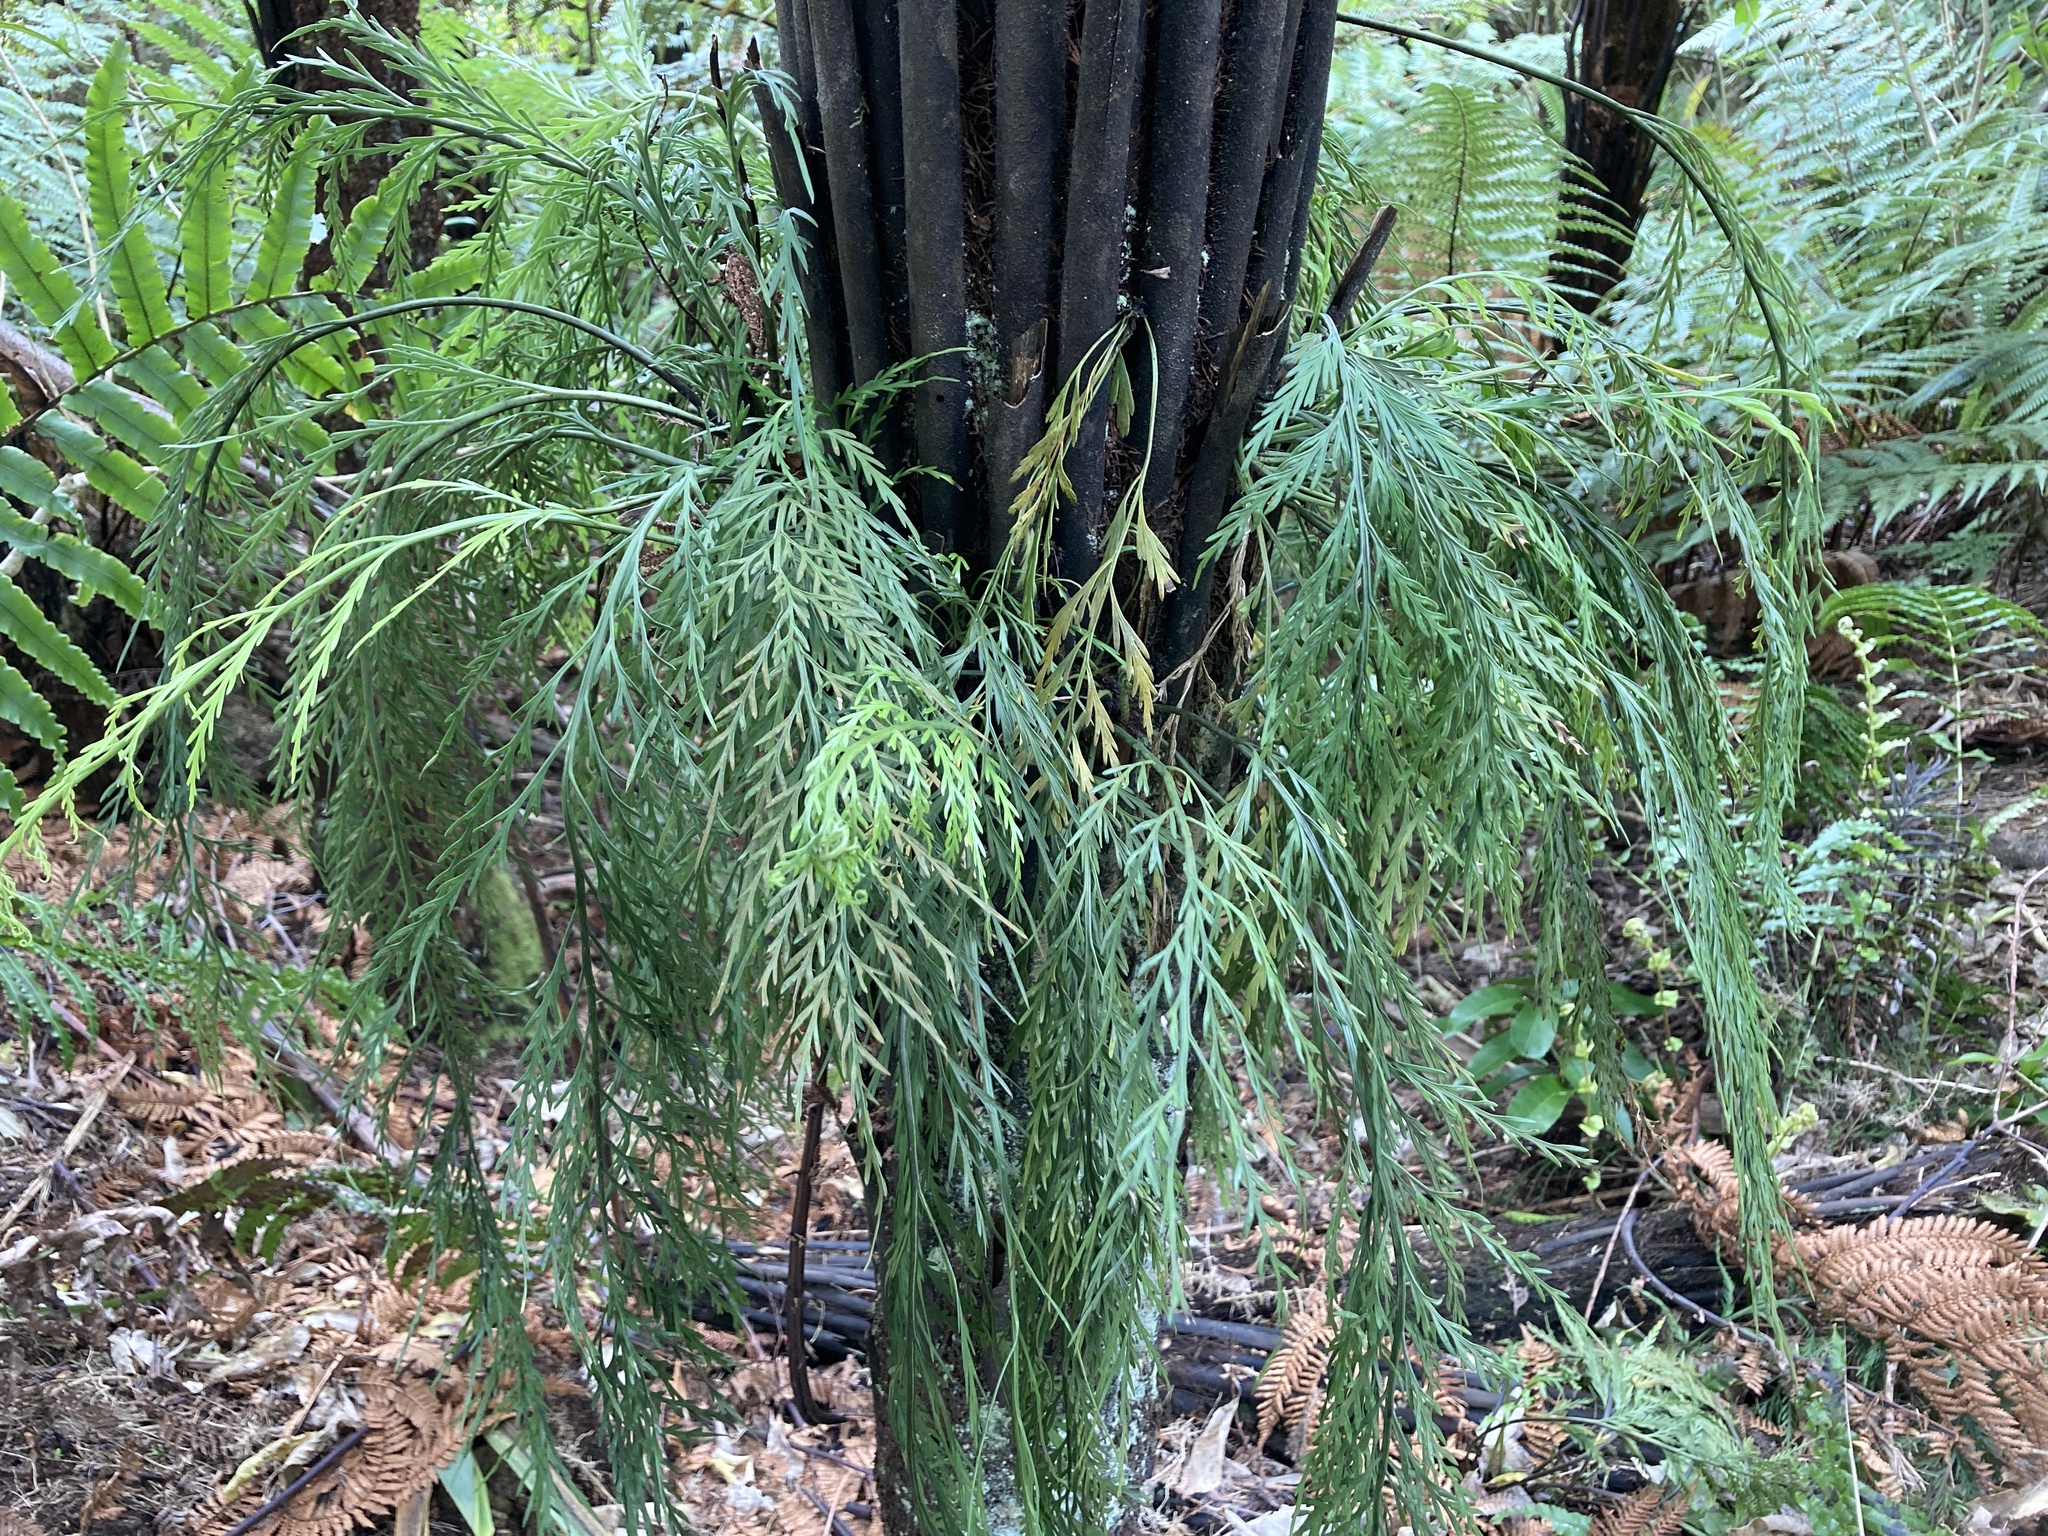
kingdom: Plantae
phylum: Tracheophyta
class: Polypodiopsida
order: Polypodiales
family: Aspleniaceae
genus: Asplenium
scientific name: Asplenium flaccidum
